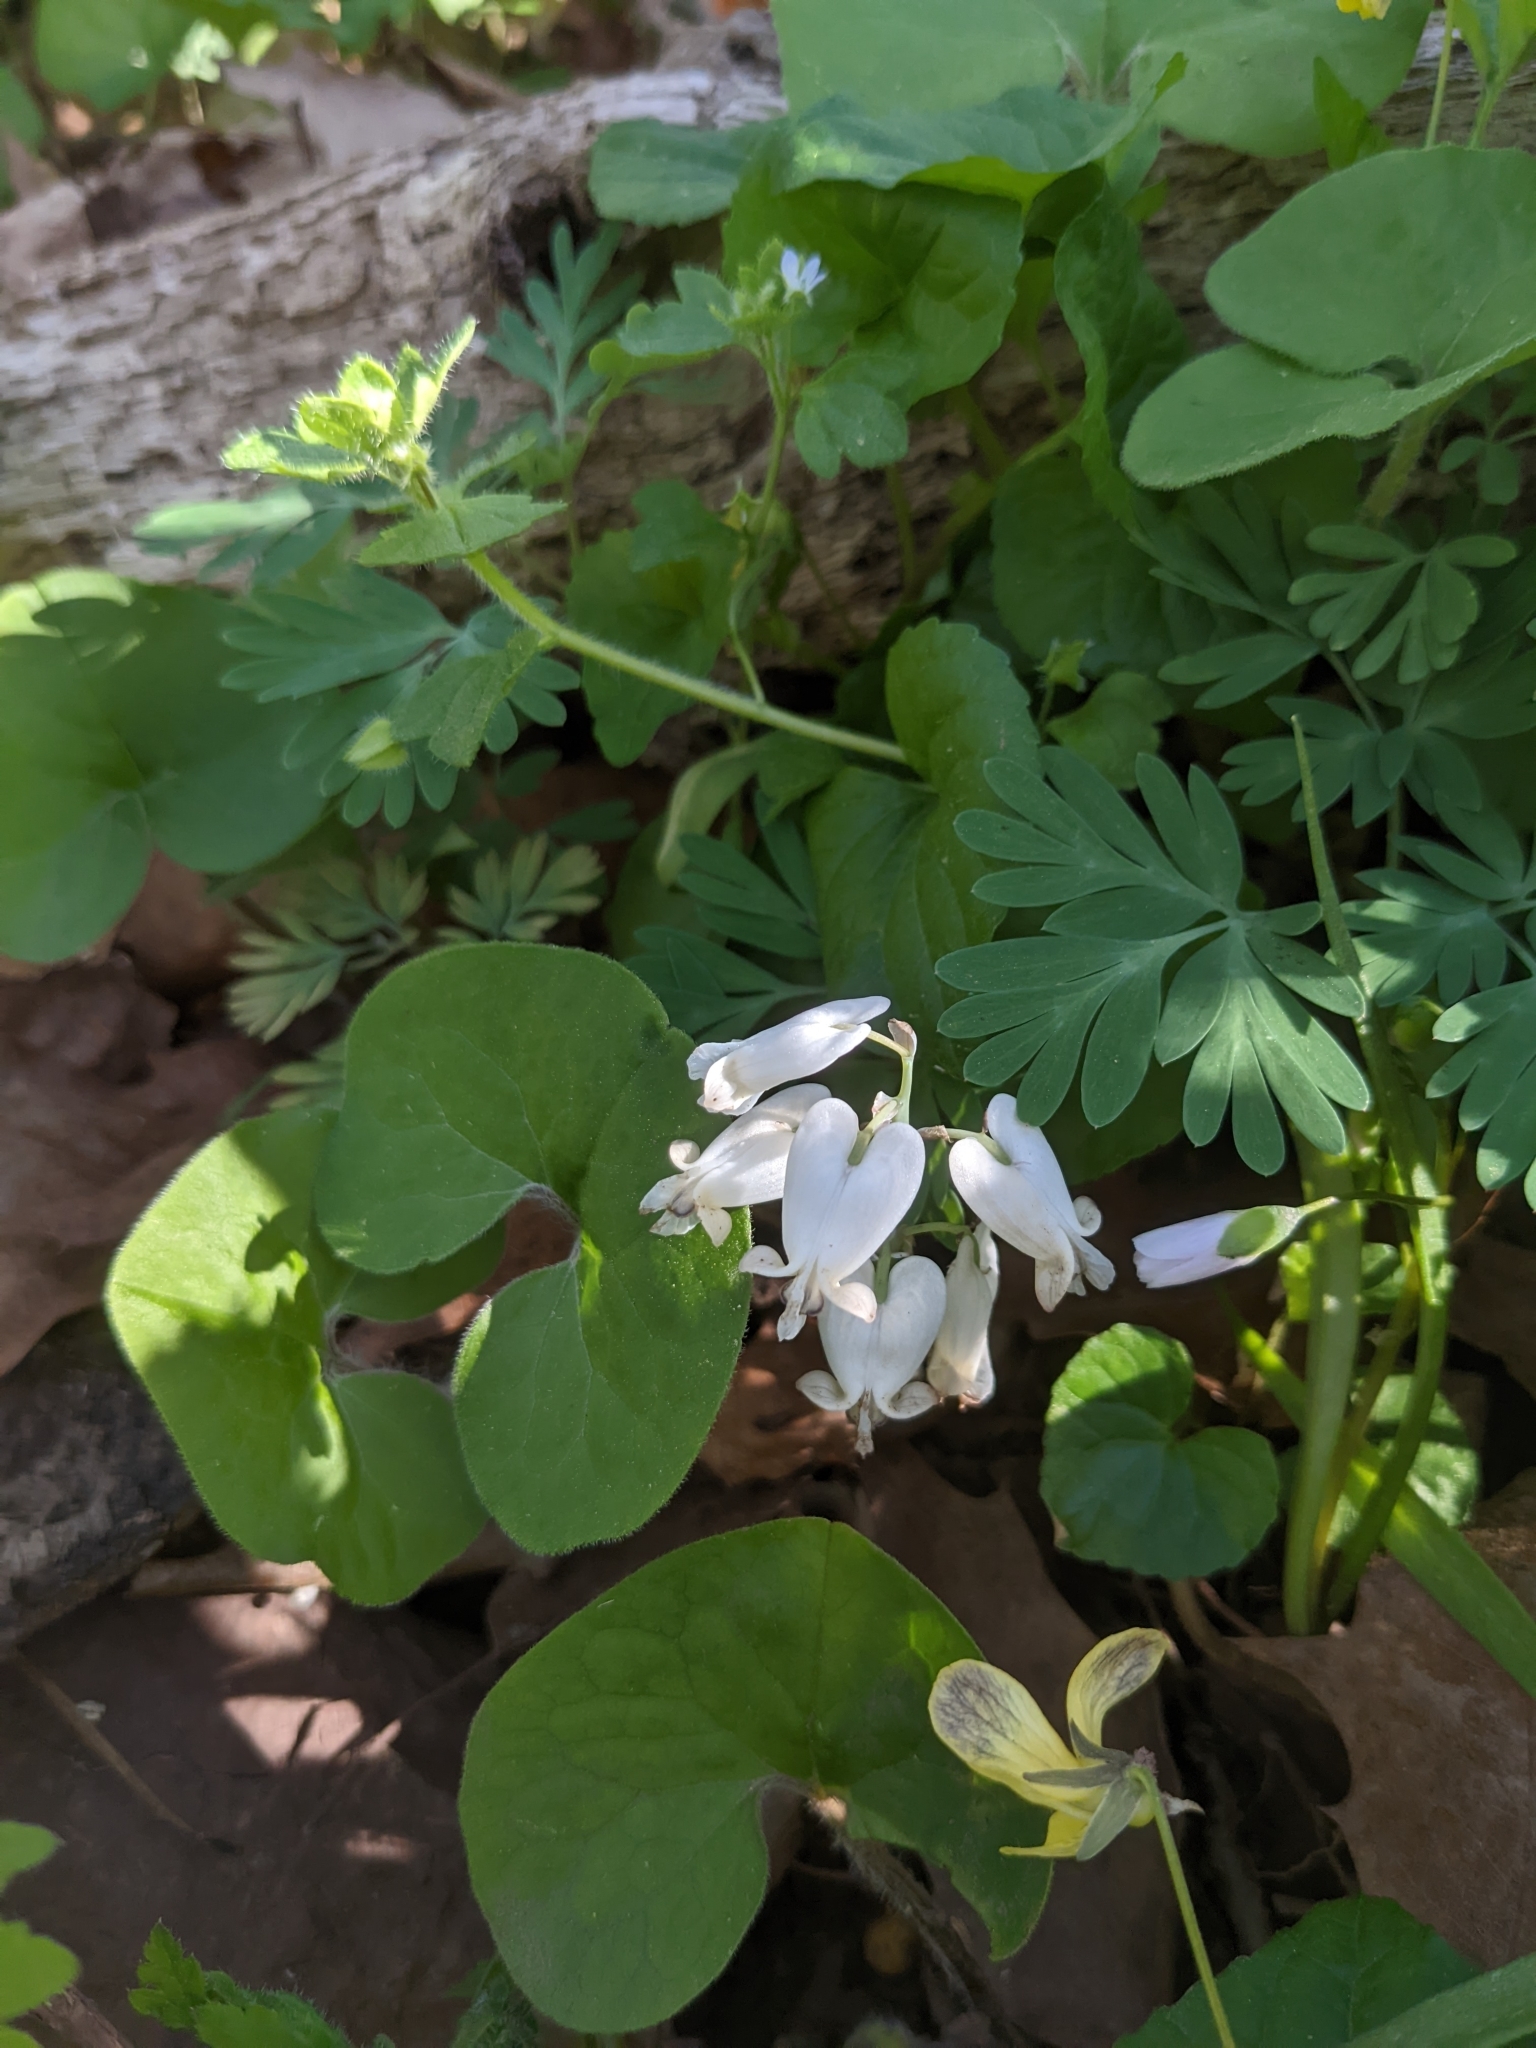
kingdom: Plantae
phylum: Tracheophyta
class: Magnoliopsida
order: Ranunculales
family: Papaveraceae
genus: Dicentra
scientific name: Dicentra canadensis
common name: Squirrel-corn
